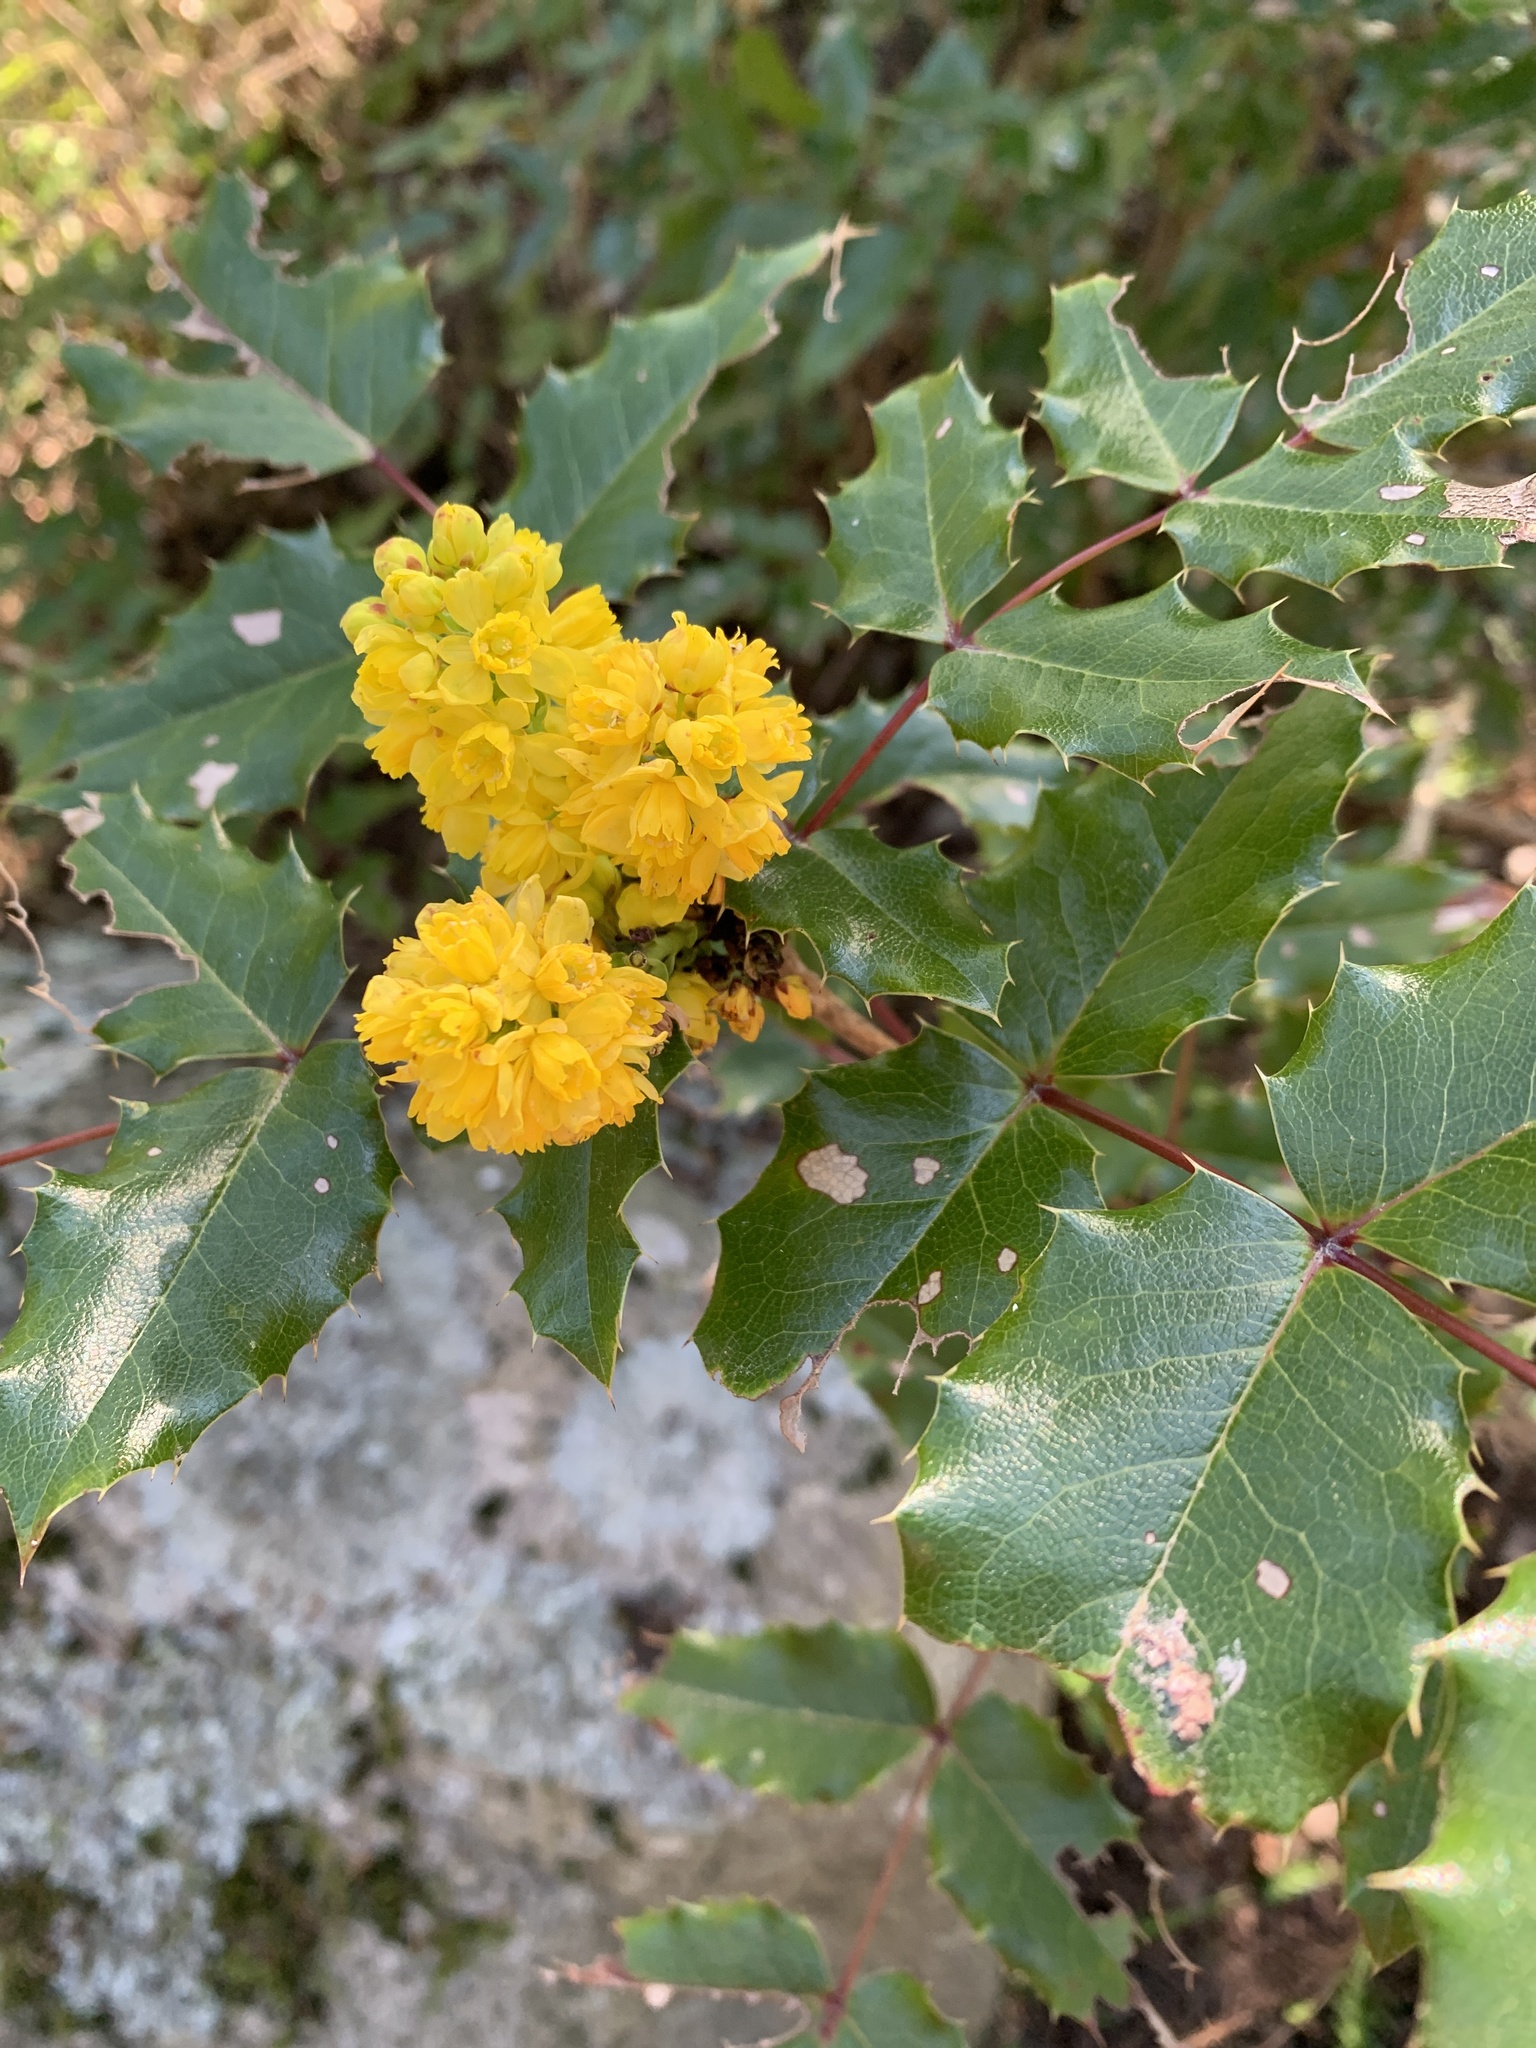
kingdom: Plantae
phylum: Tracheophyta
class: Magnoliopsida
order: Ranunculales
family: Berberidaceae
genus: Mahonia
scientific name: Mahonia aquifolium
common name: Oregon-grape
